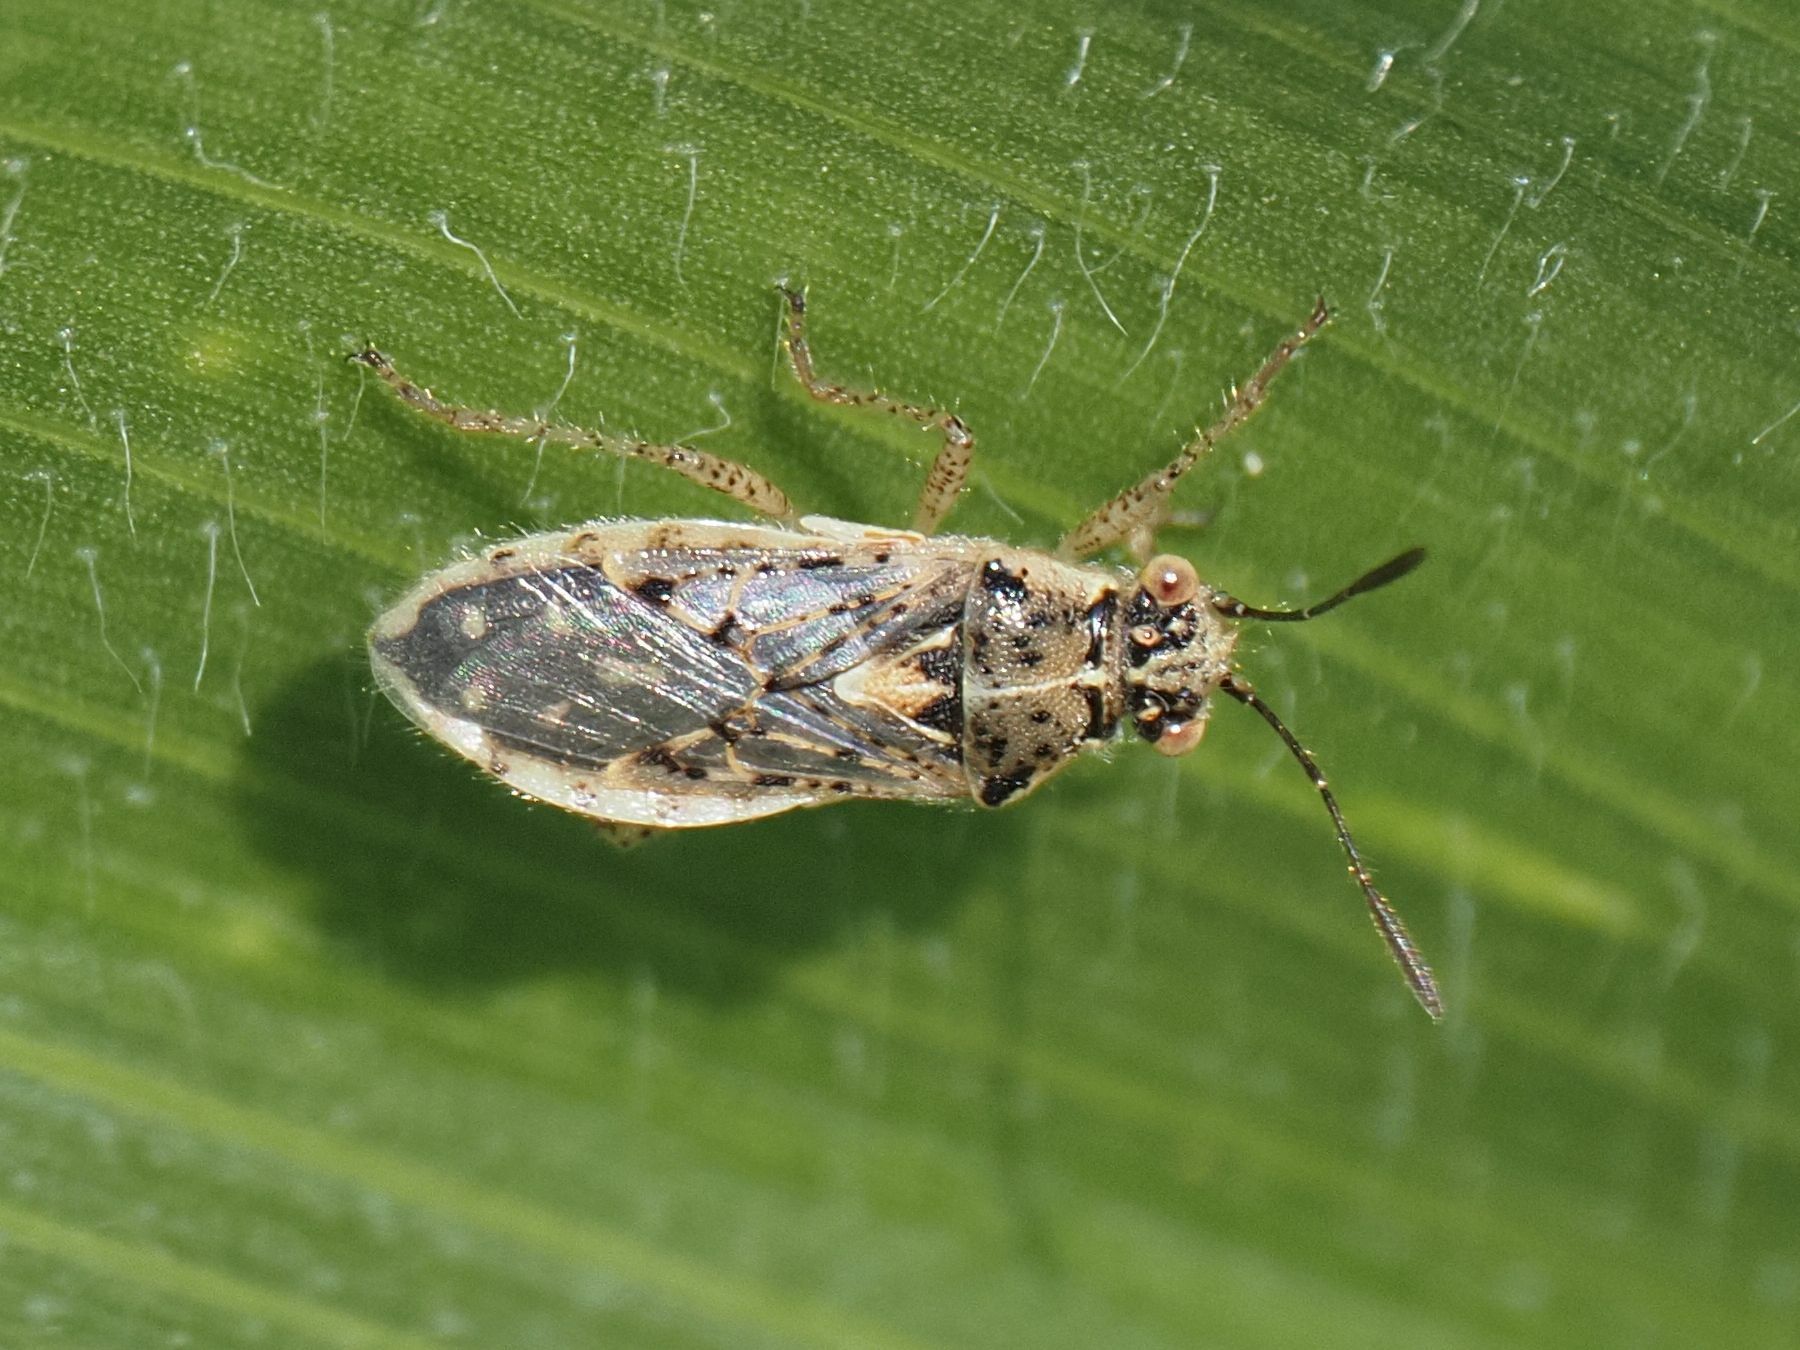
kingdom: Animalia
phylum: Arthropoda
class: Insecta
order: Hemiptera
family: Rhopalidae
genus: Brachycarenus
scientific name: Brachycarenus tigrinus
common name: Scentless plant bug
